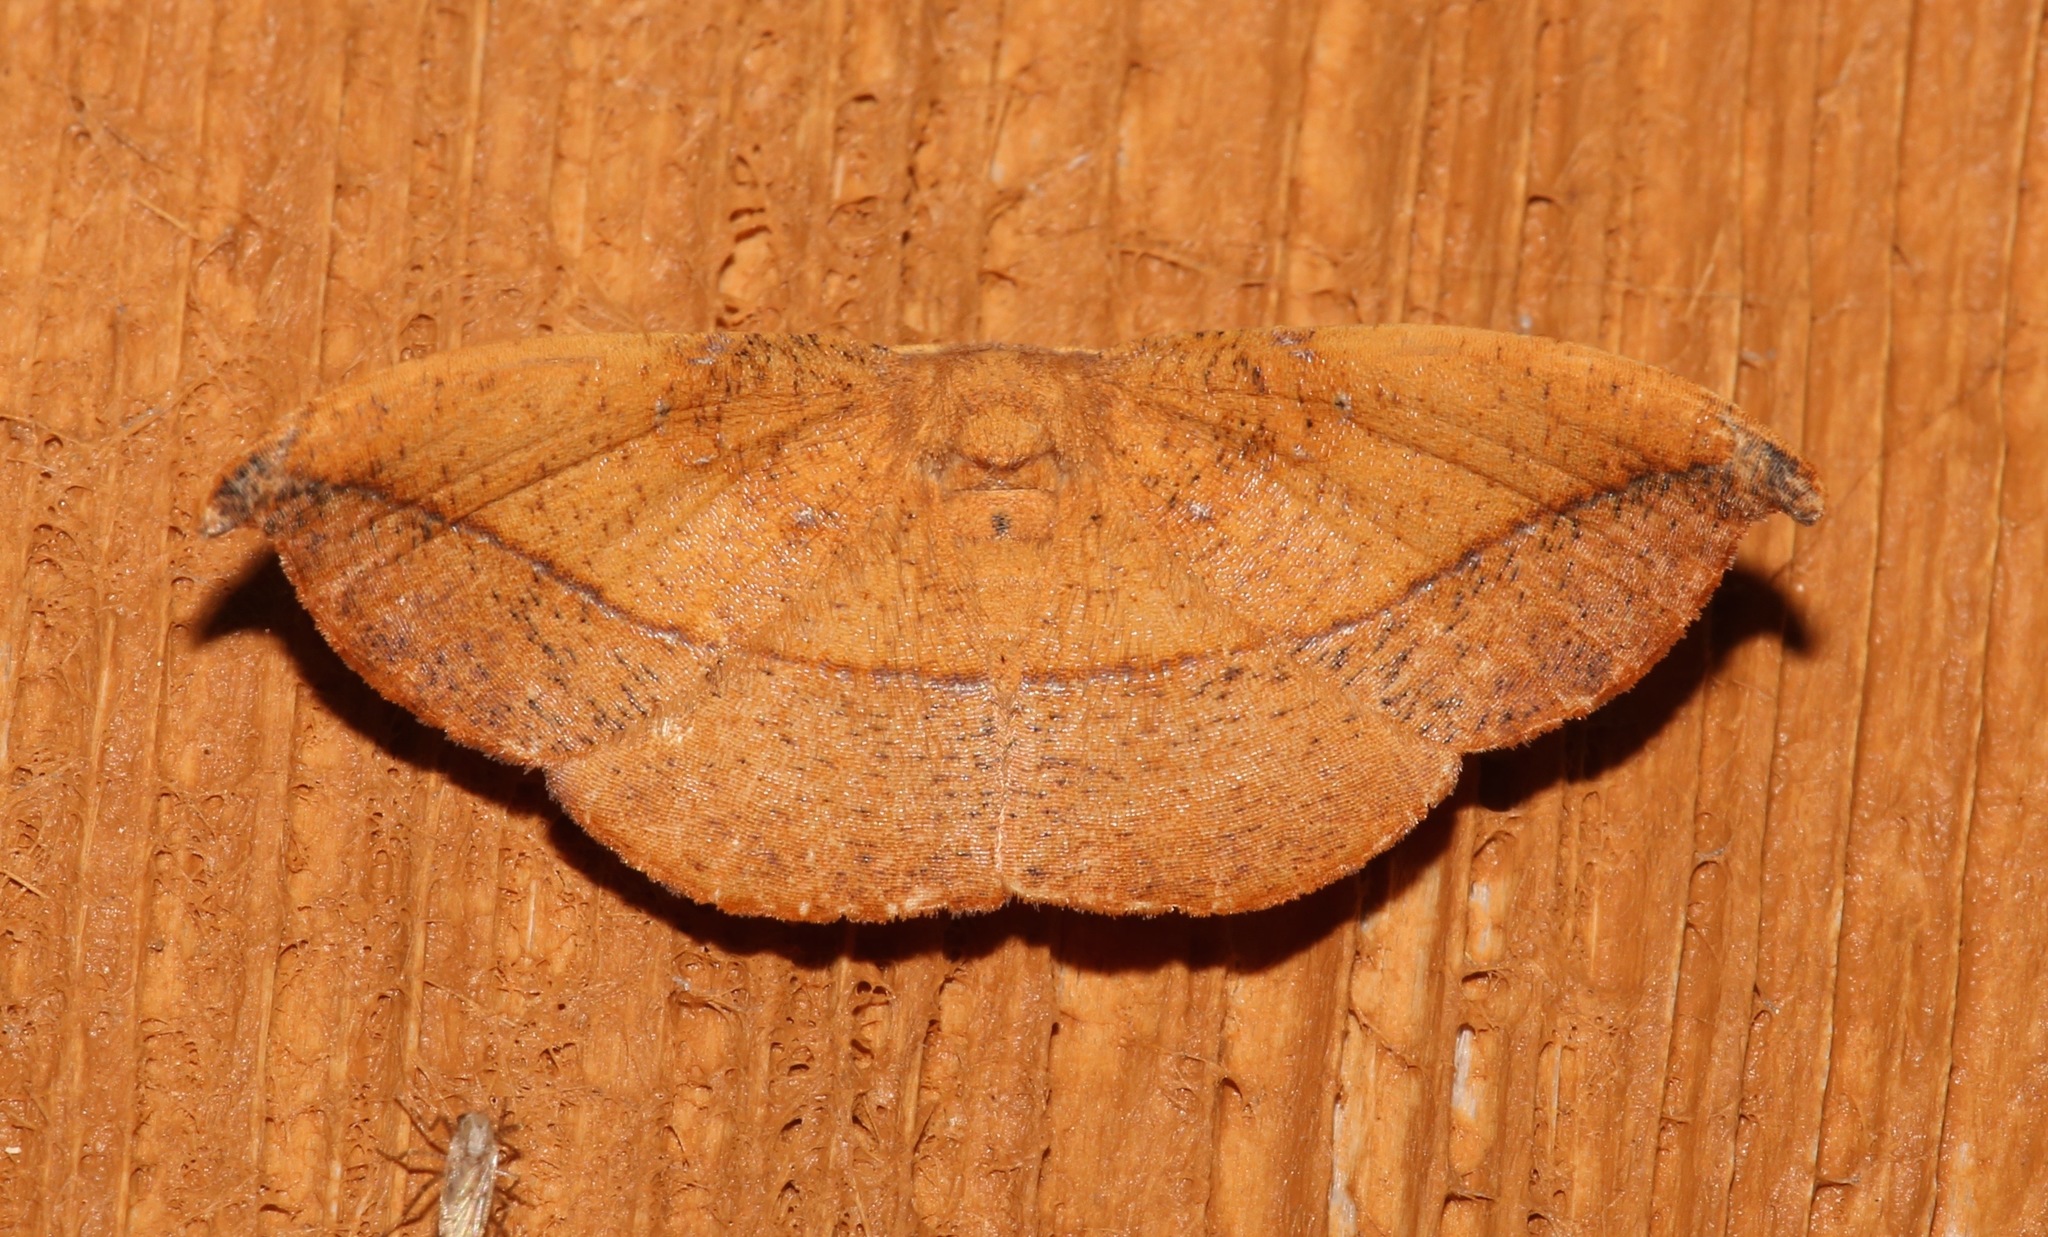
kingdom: Animalia
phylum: Arthropoda
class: Insecta
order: Lepidoptera
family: Geometridae
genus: Patalene
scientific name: Patalene olyzonaria
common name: Juniper geometer moth
